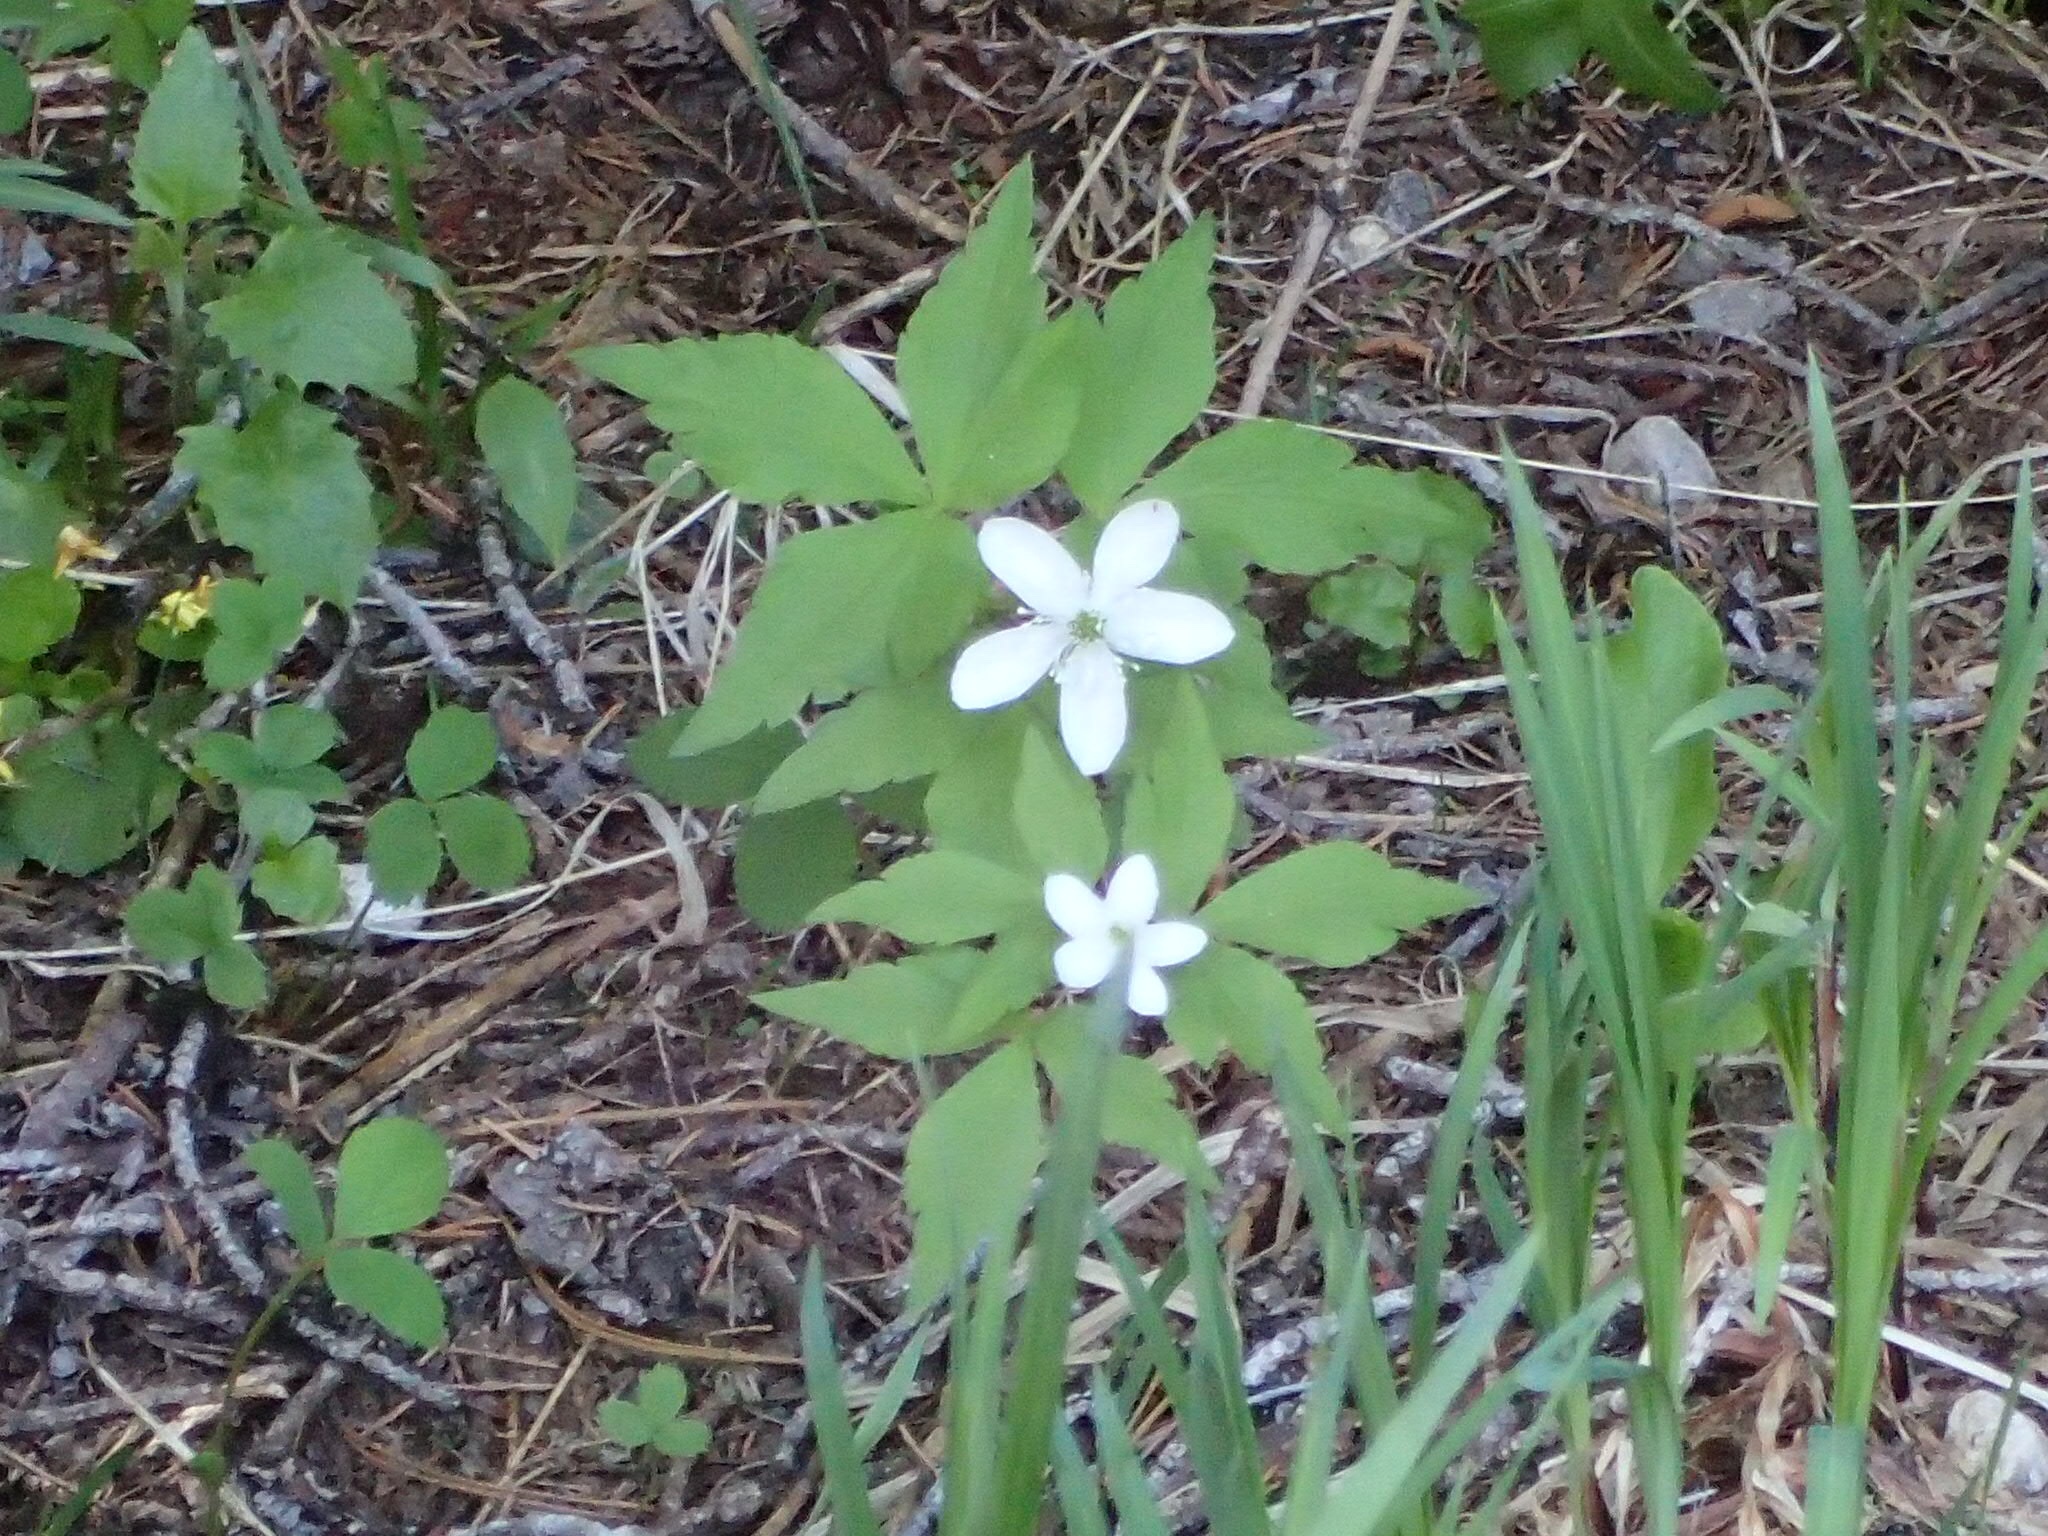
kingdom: Plantae
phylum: Tracheophyta
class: Magnoliopsida
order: Ranunculales
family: Ranunculaceae
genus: Anemone
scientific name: Anemone piperi
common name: Piper's anemone
